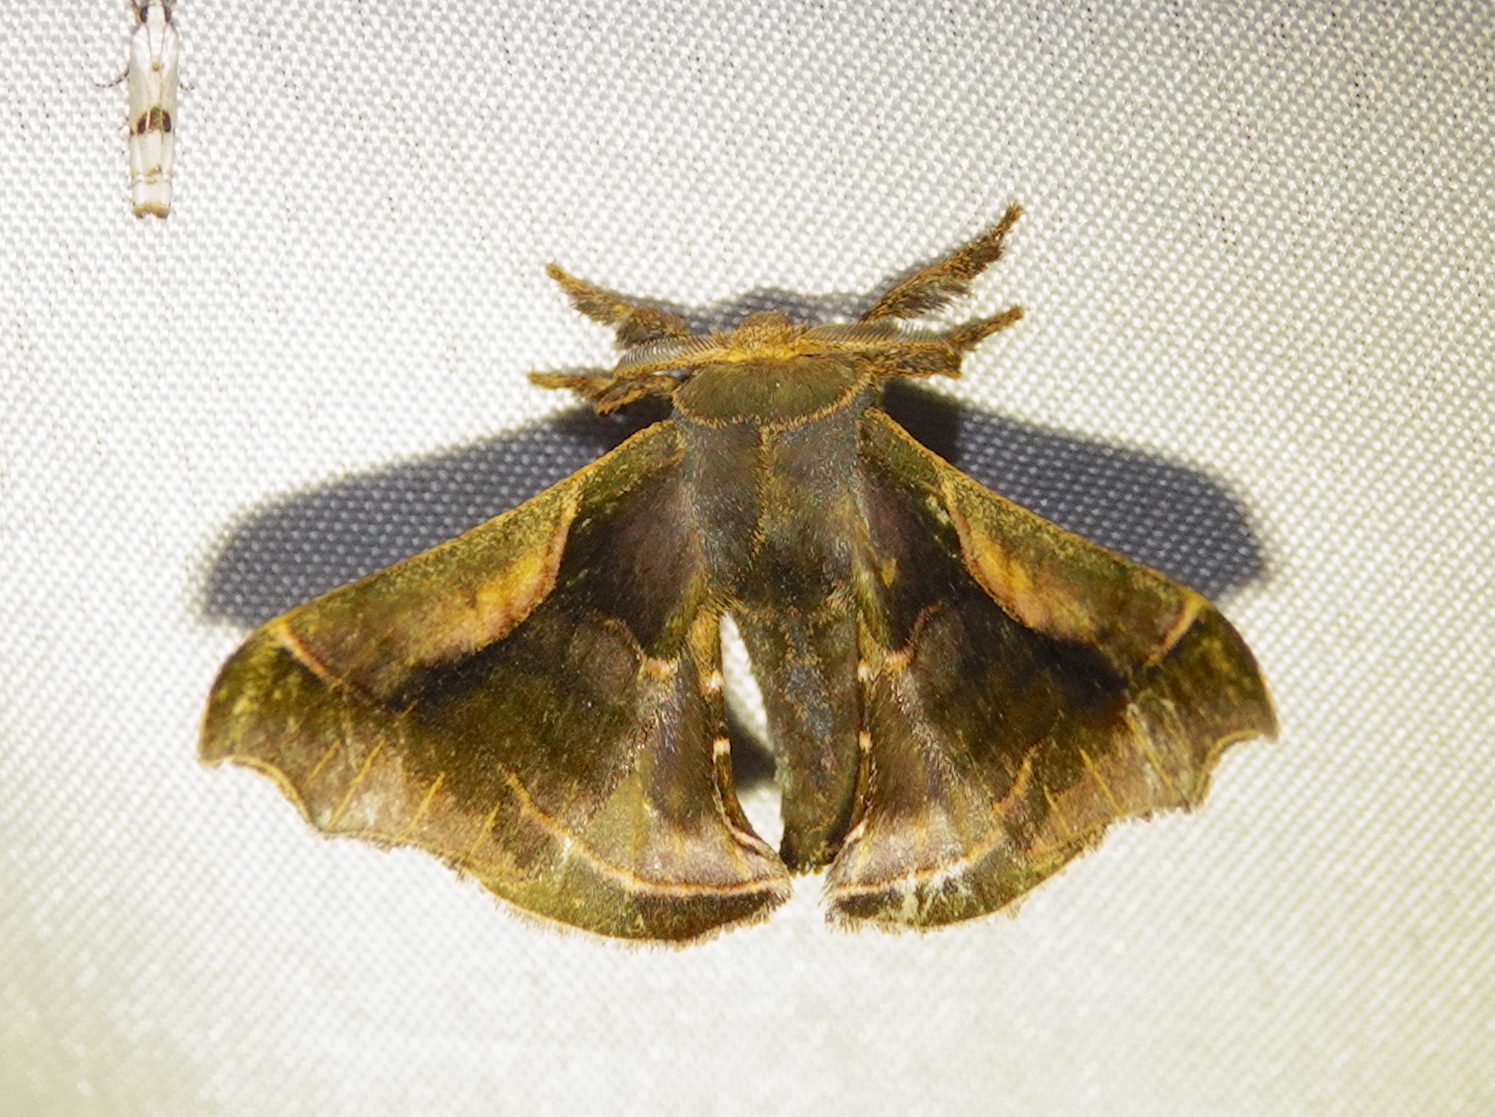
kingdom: Animalia
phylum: Arthropoda
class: Insecta
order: Lepidoptera
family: Bombycidae
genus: Quentalia
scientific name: Quentalia ficus
